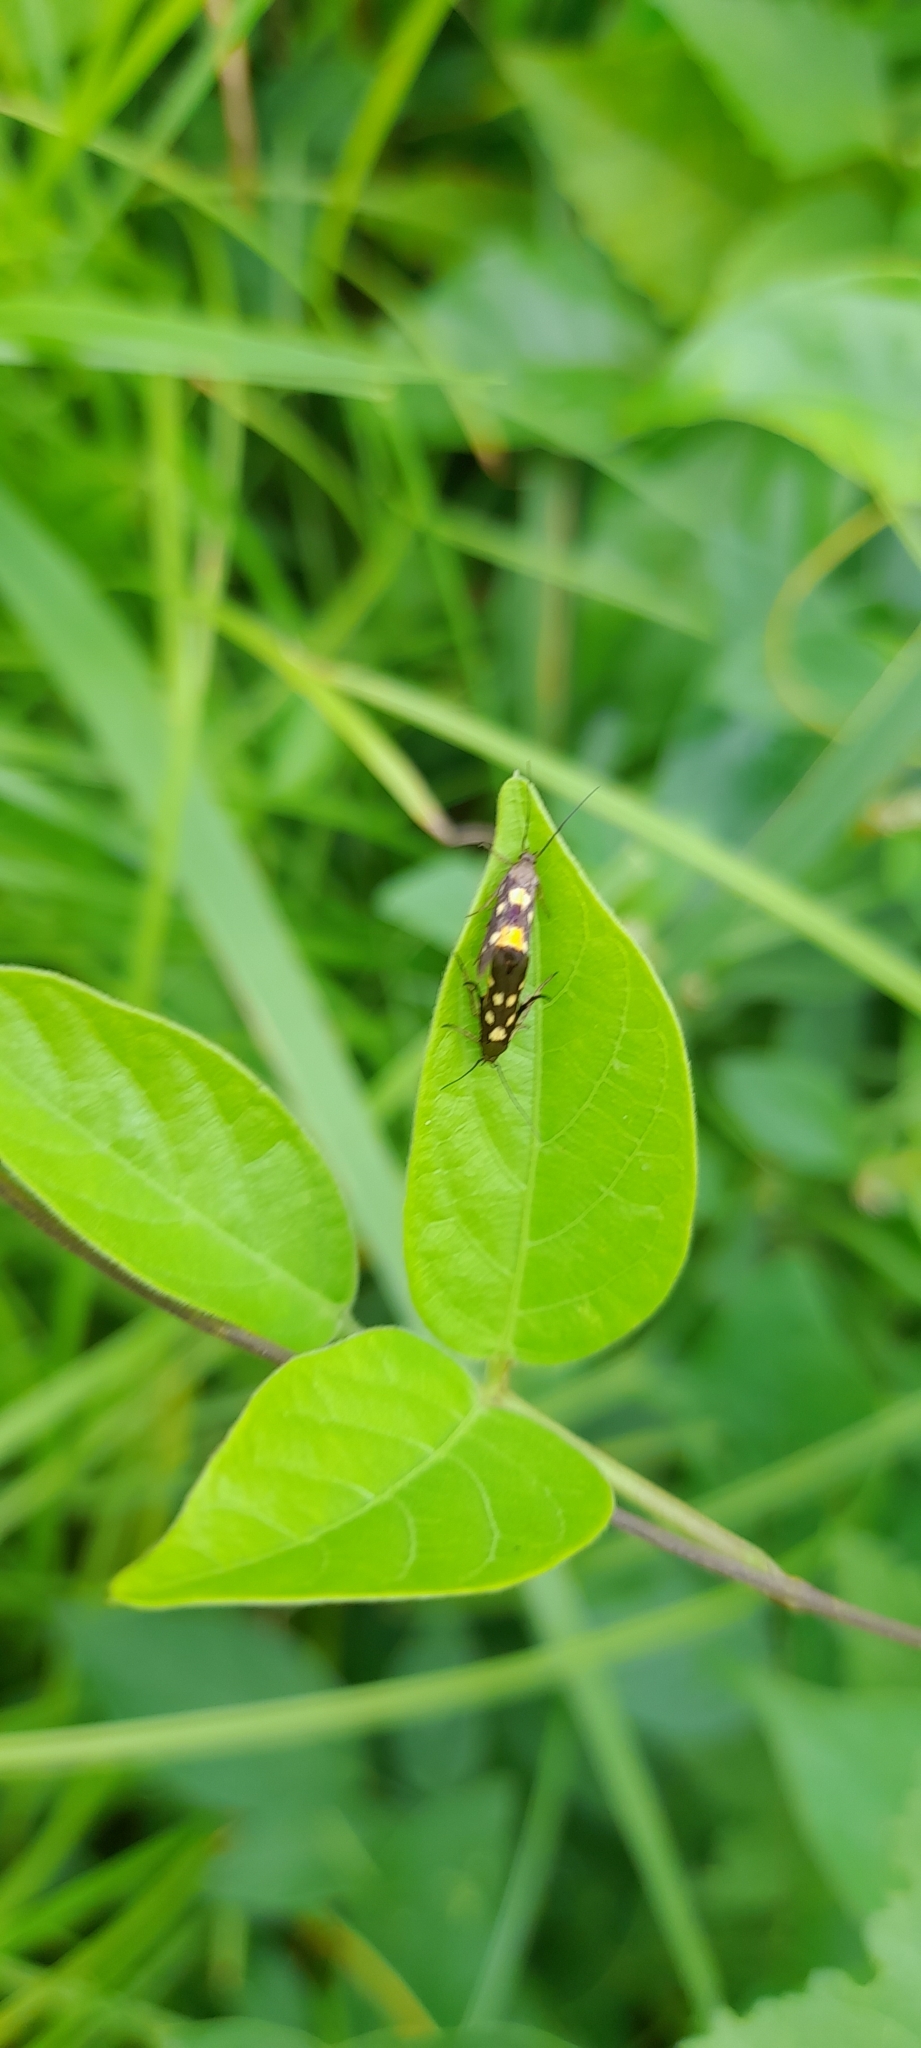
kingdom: Animalia
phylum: Arthropoda
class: Insecta
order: Lepidoptera
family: Scythrididae
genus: Eretmocera
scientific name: Eretmocera impactella
